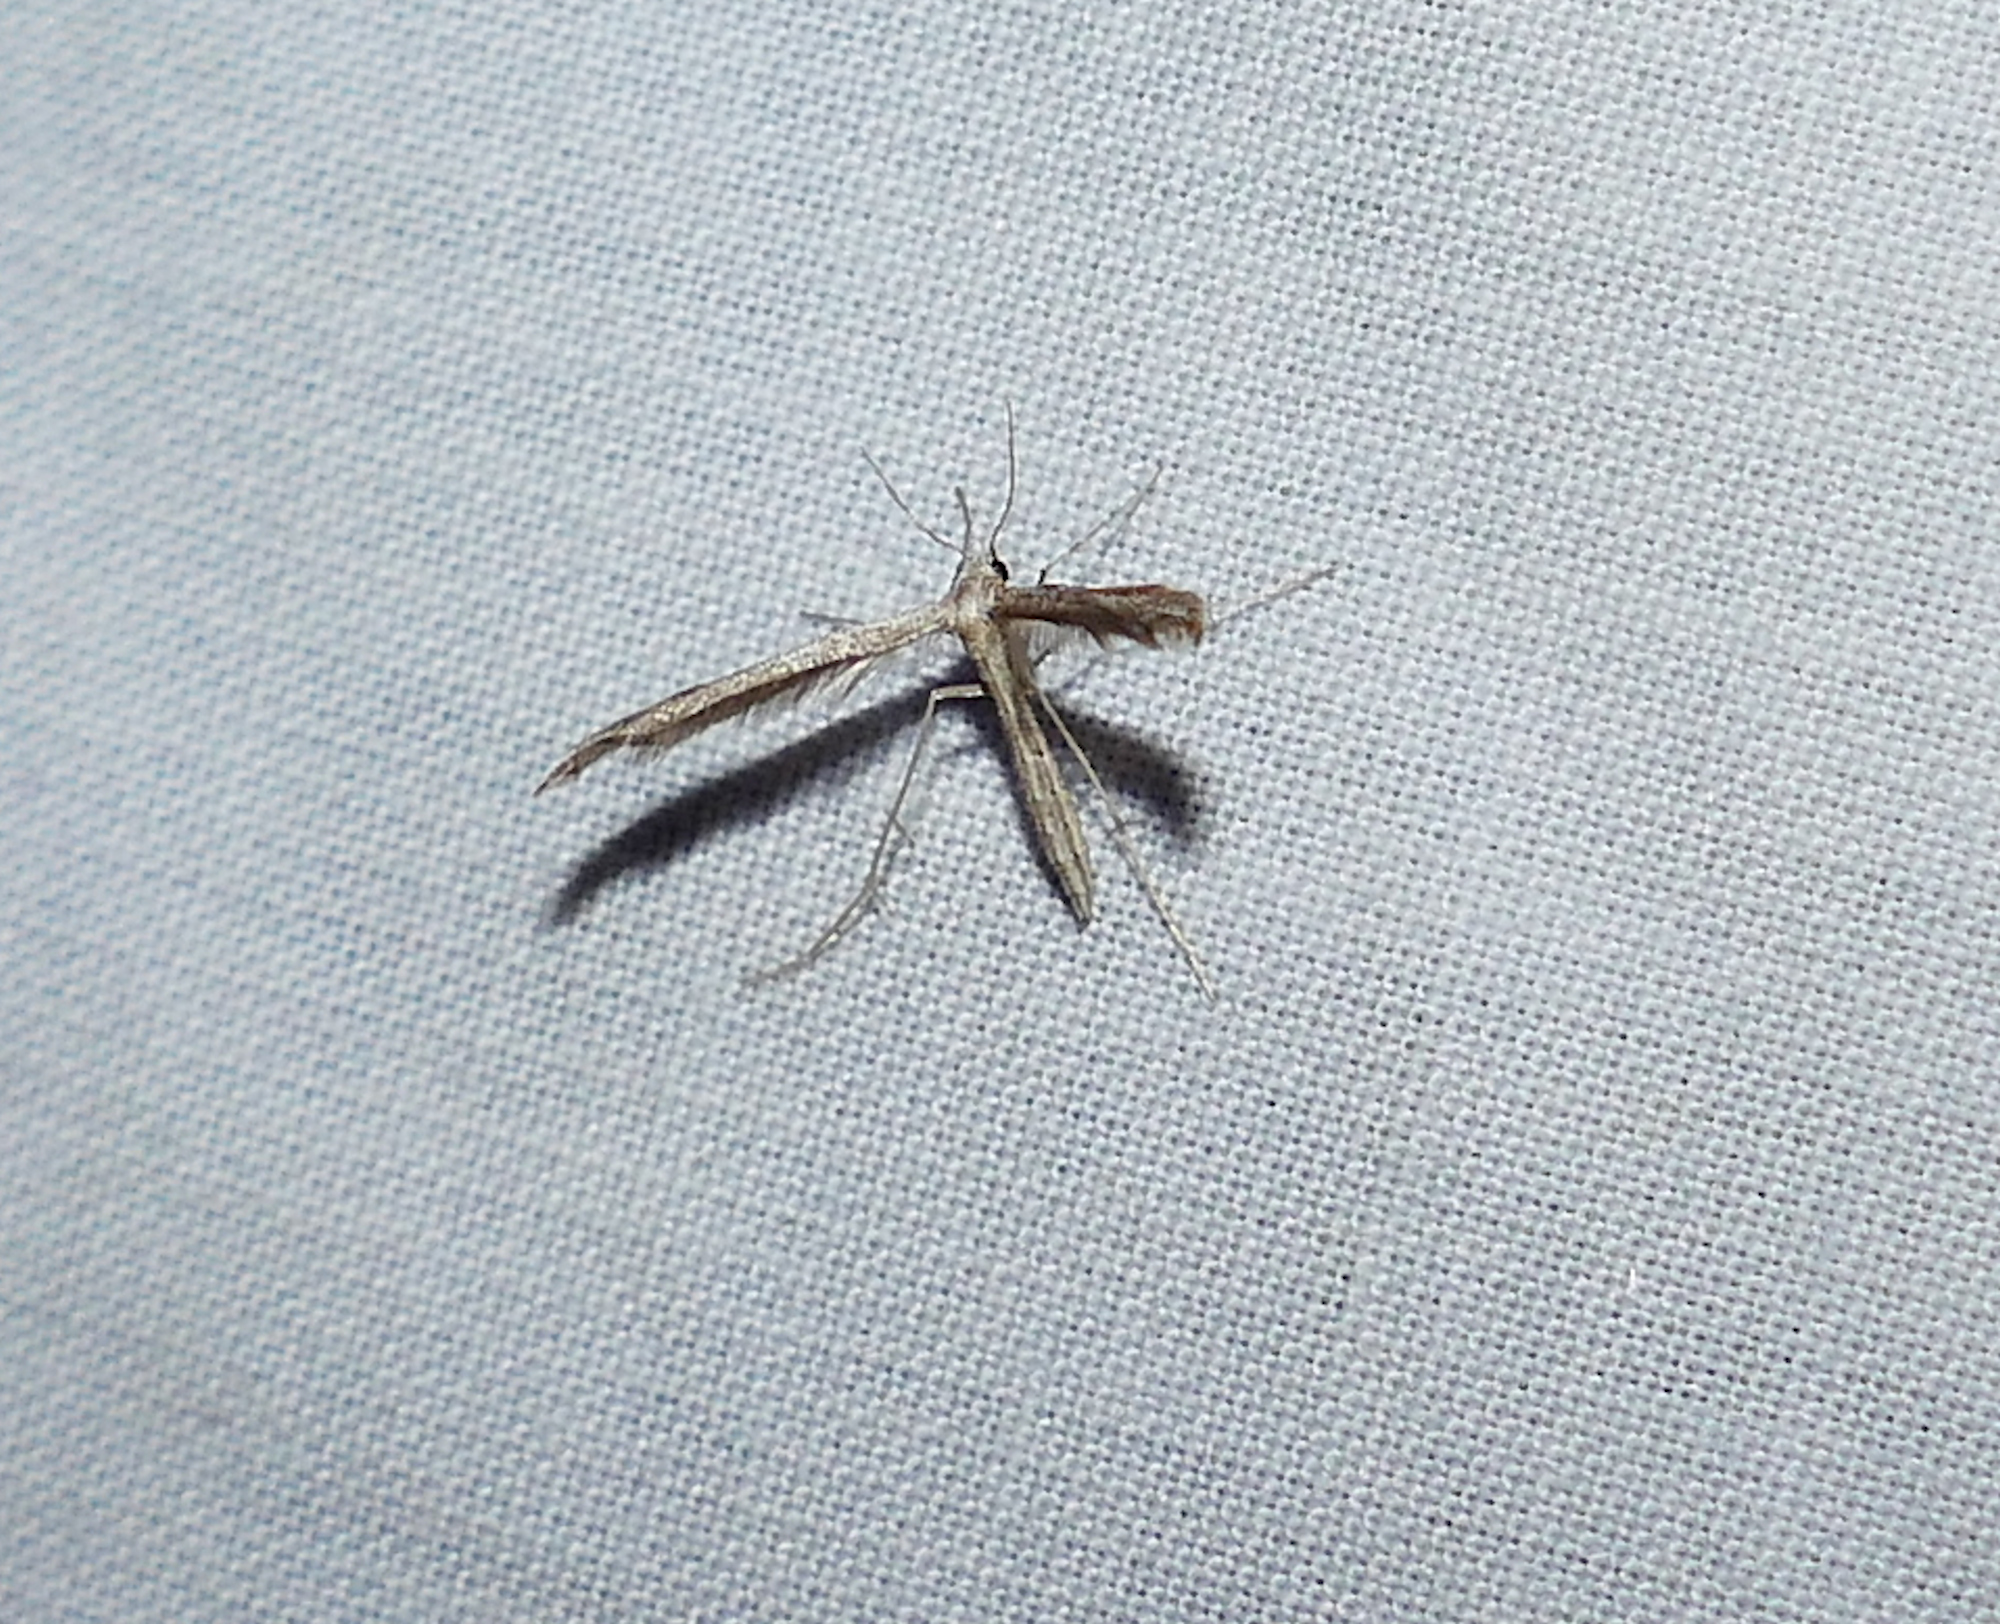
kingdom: Animalia
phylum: Arthropoda
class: Insecta
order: Lepidoptera
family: Pterophoridae
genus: Lioptilodes
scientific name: Lioptilodes albistriolatus
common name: Moth
